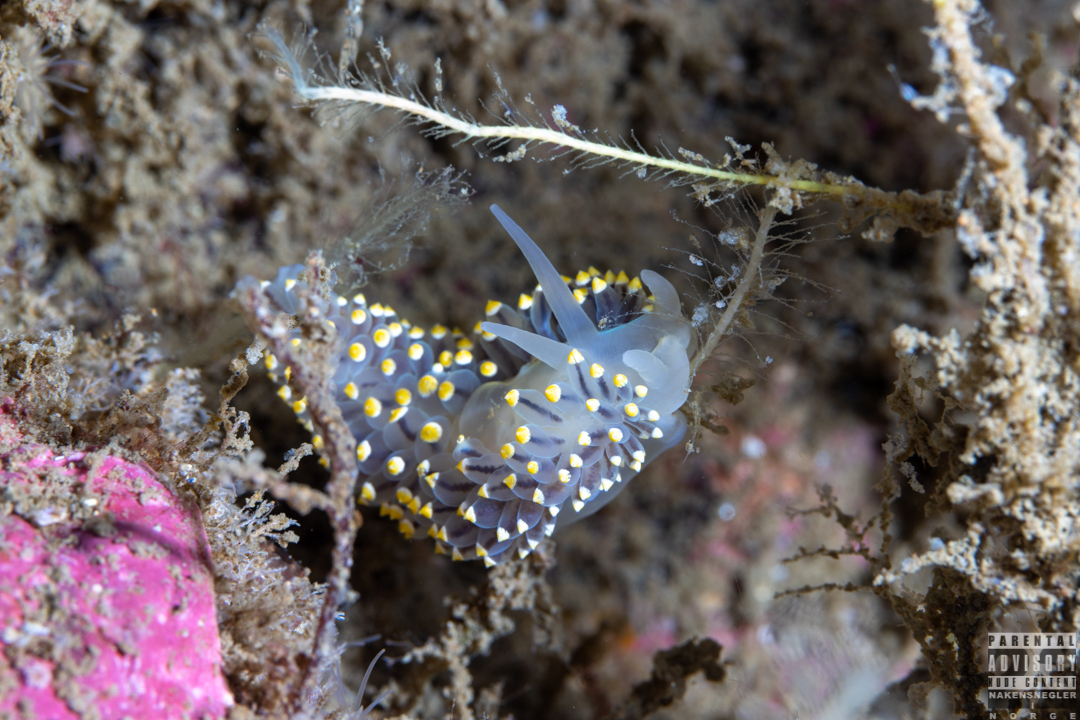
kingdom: Animalia
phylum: Mollusca
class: Gastropoda
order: Nudibranchia
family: Eubranchidae
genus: Eubranchus
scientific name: Eubranchus tricolor
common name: Painted balloon aeolis
